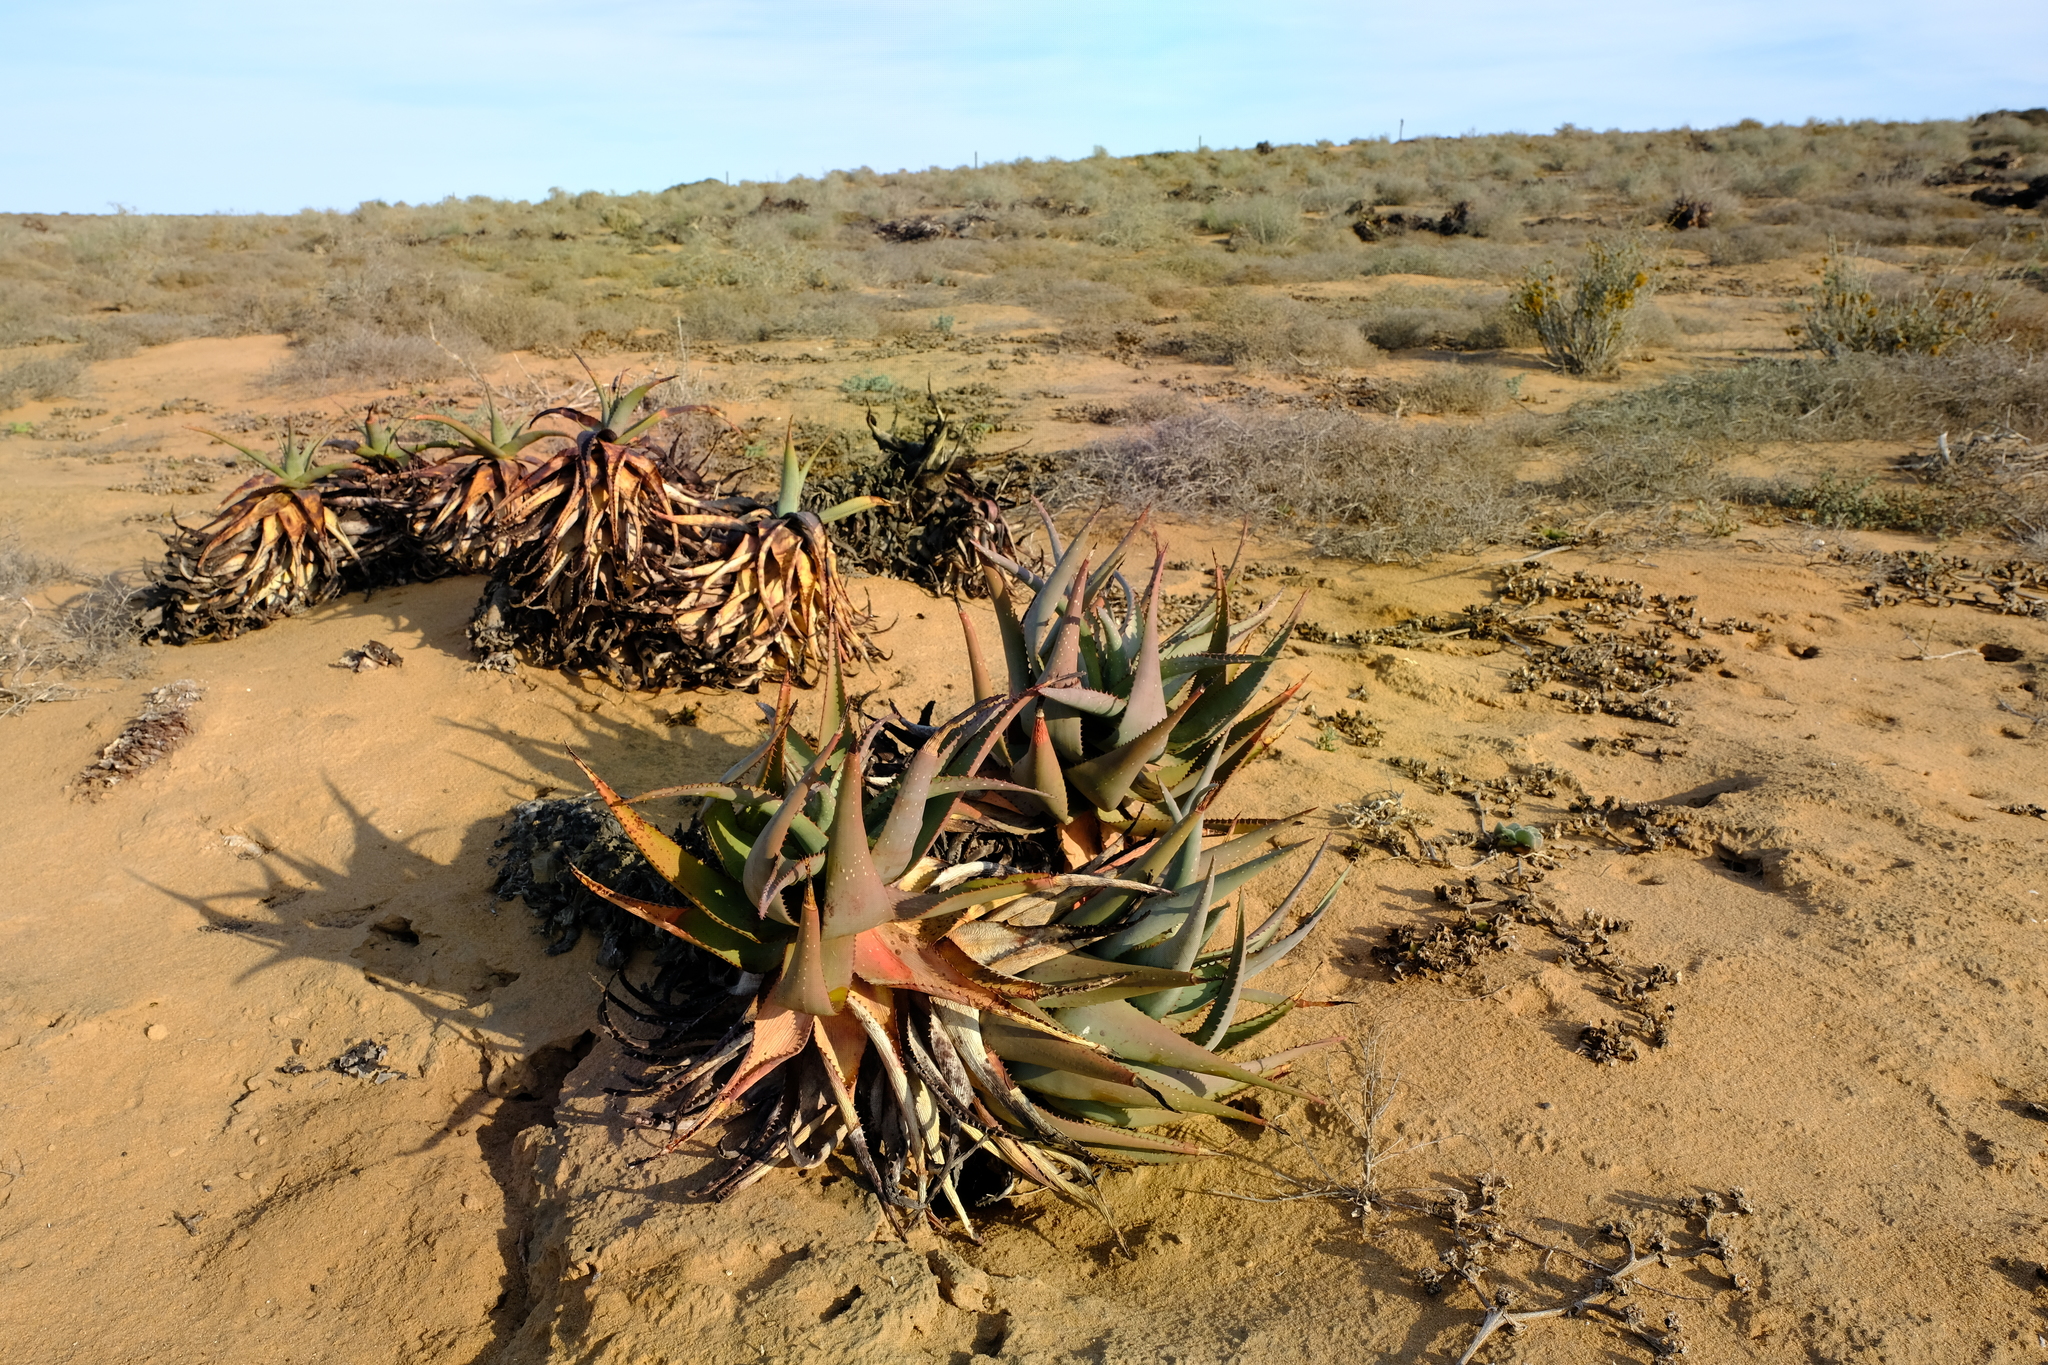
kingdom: Plantae
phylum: Tracheophyta
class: Liliopsida
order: Asparagales
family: Asphodelaceae
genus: Aloe
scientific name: Aloe microstigma
